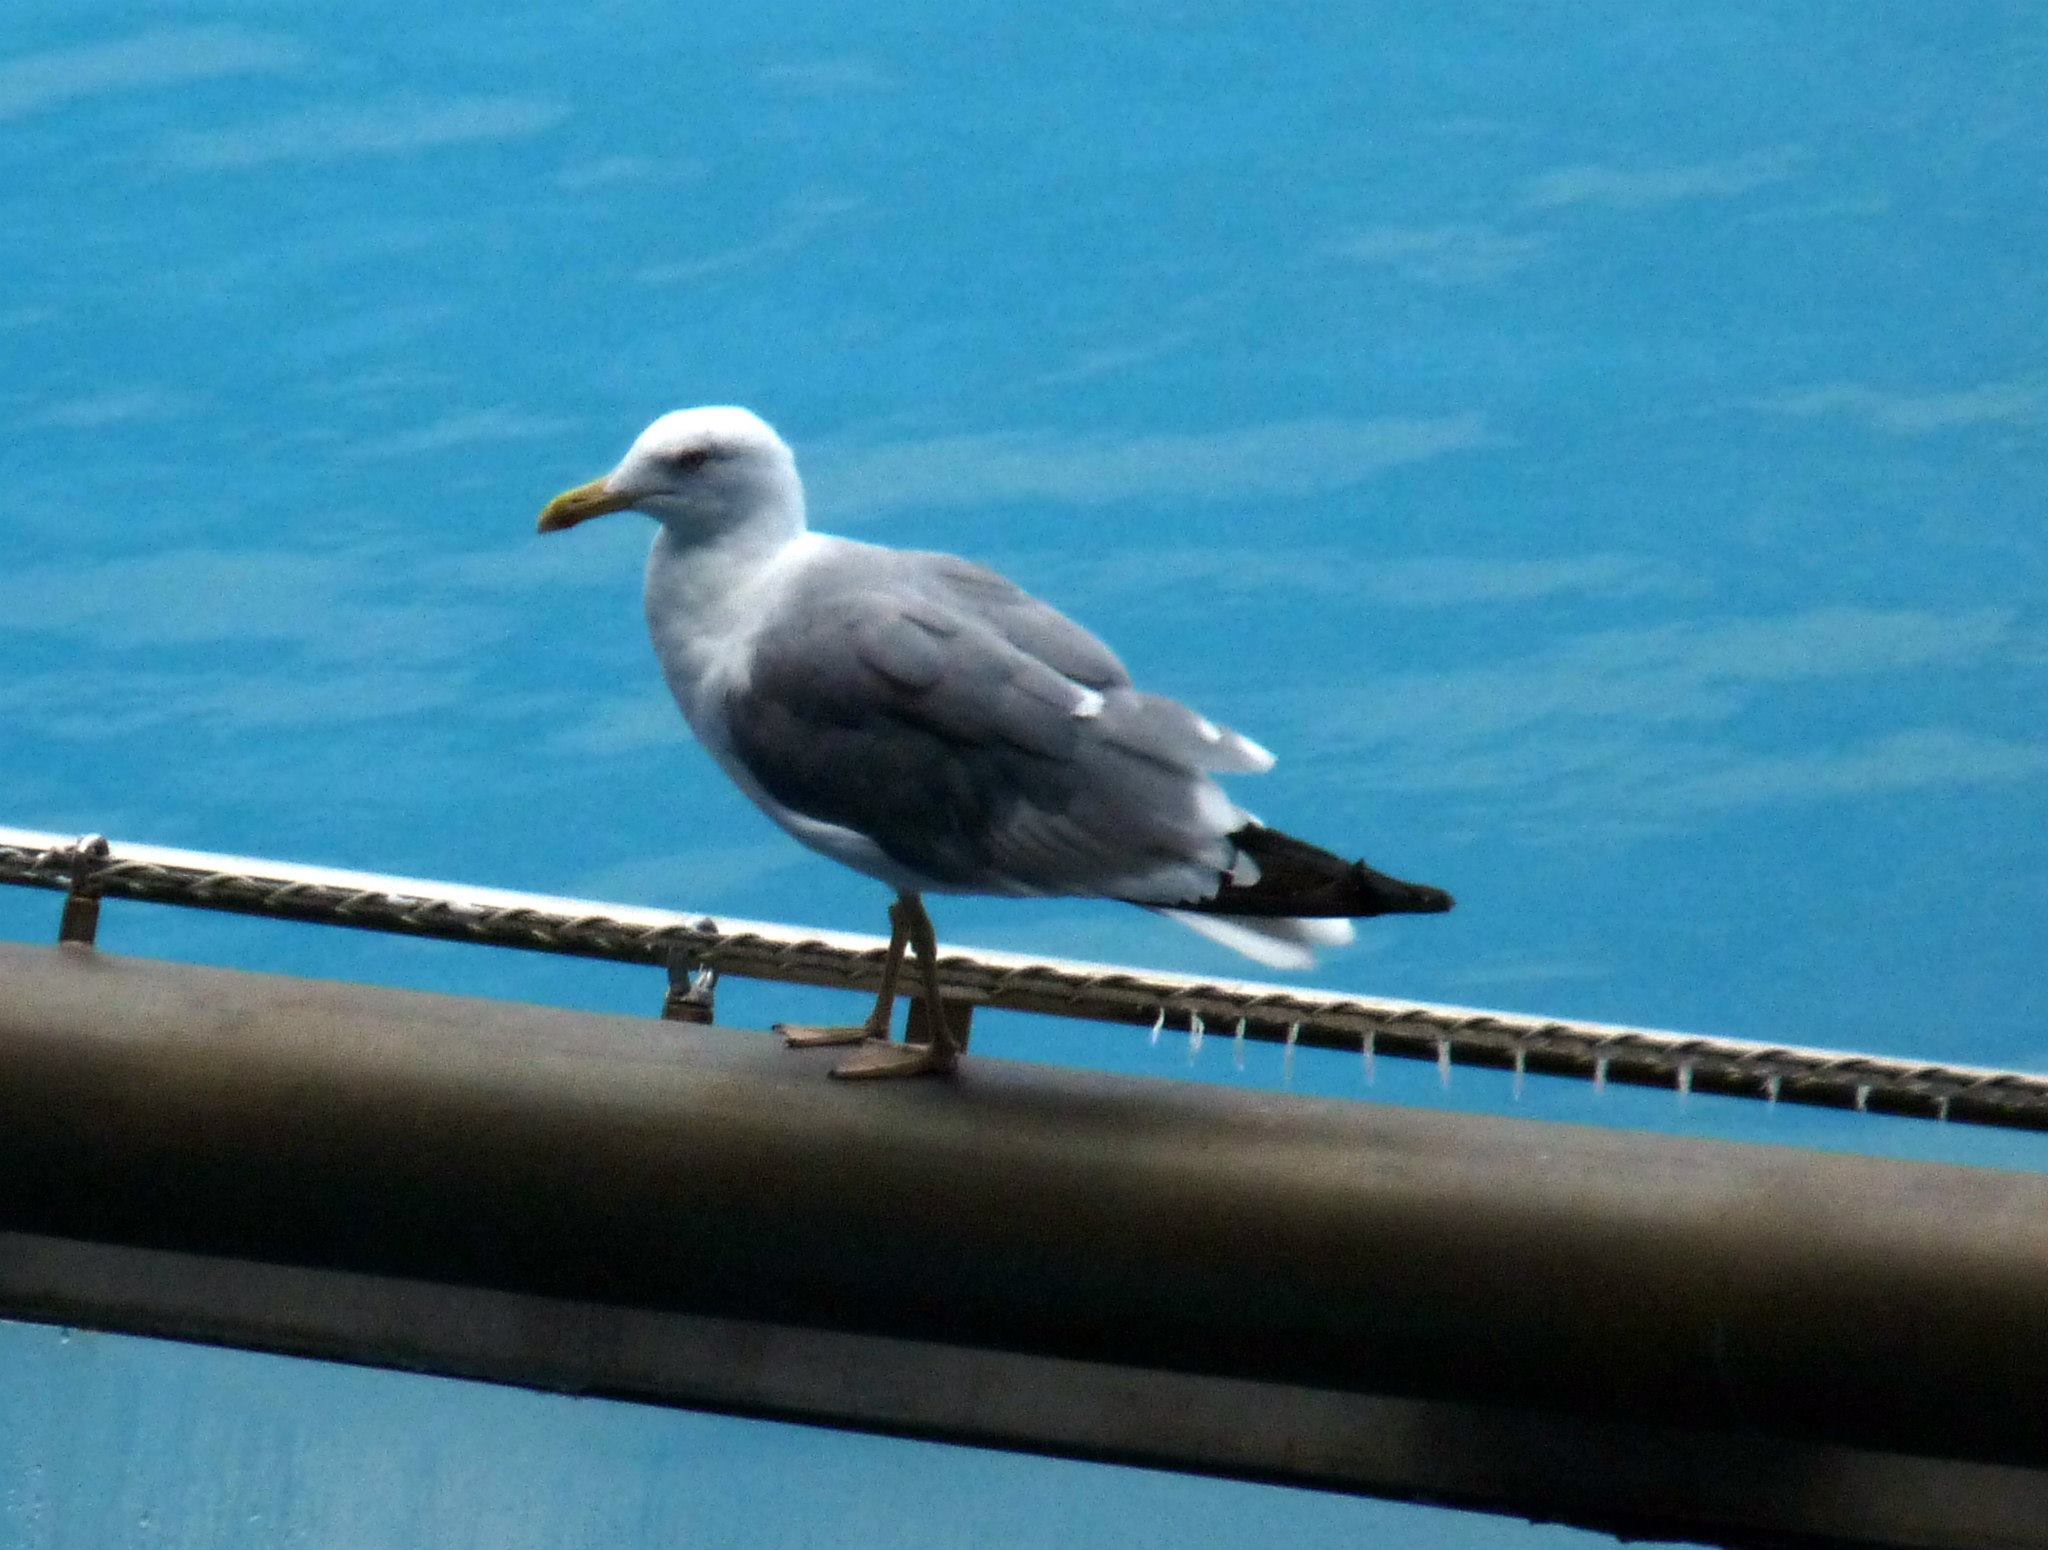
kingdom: Animalia
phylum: Chordata
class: Aves
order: Charadriiformes
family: Laridae
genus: Larus
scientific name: Larus michahellis
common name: Yellow-legged gull
